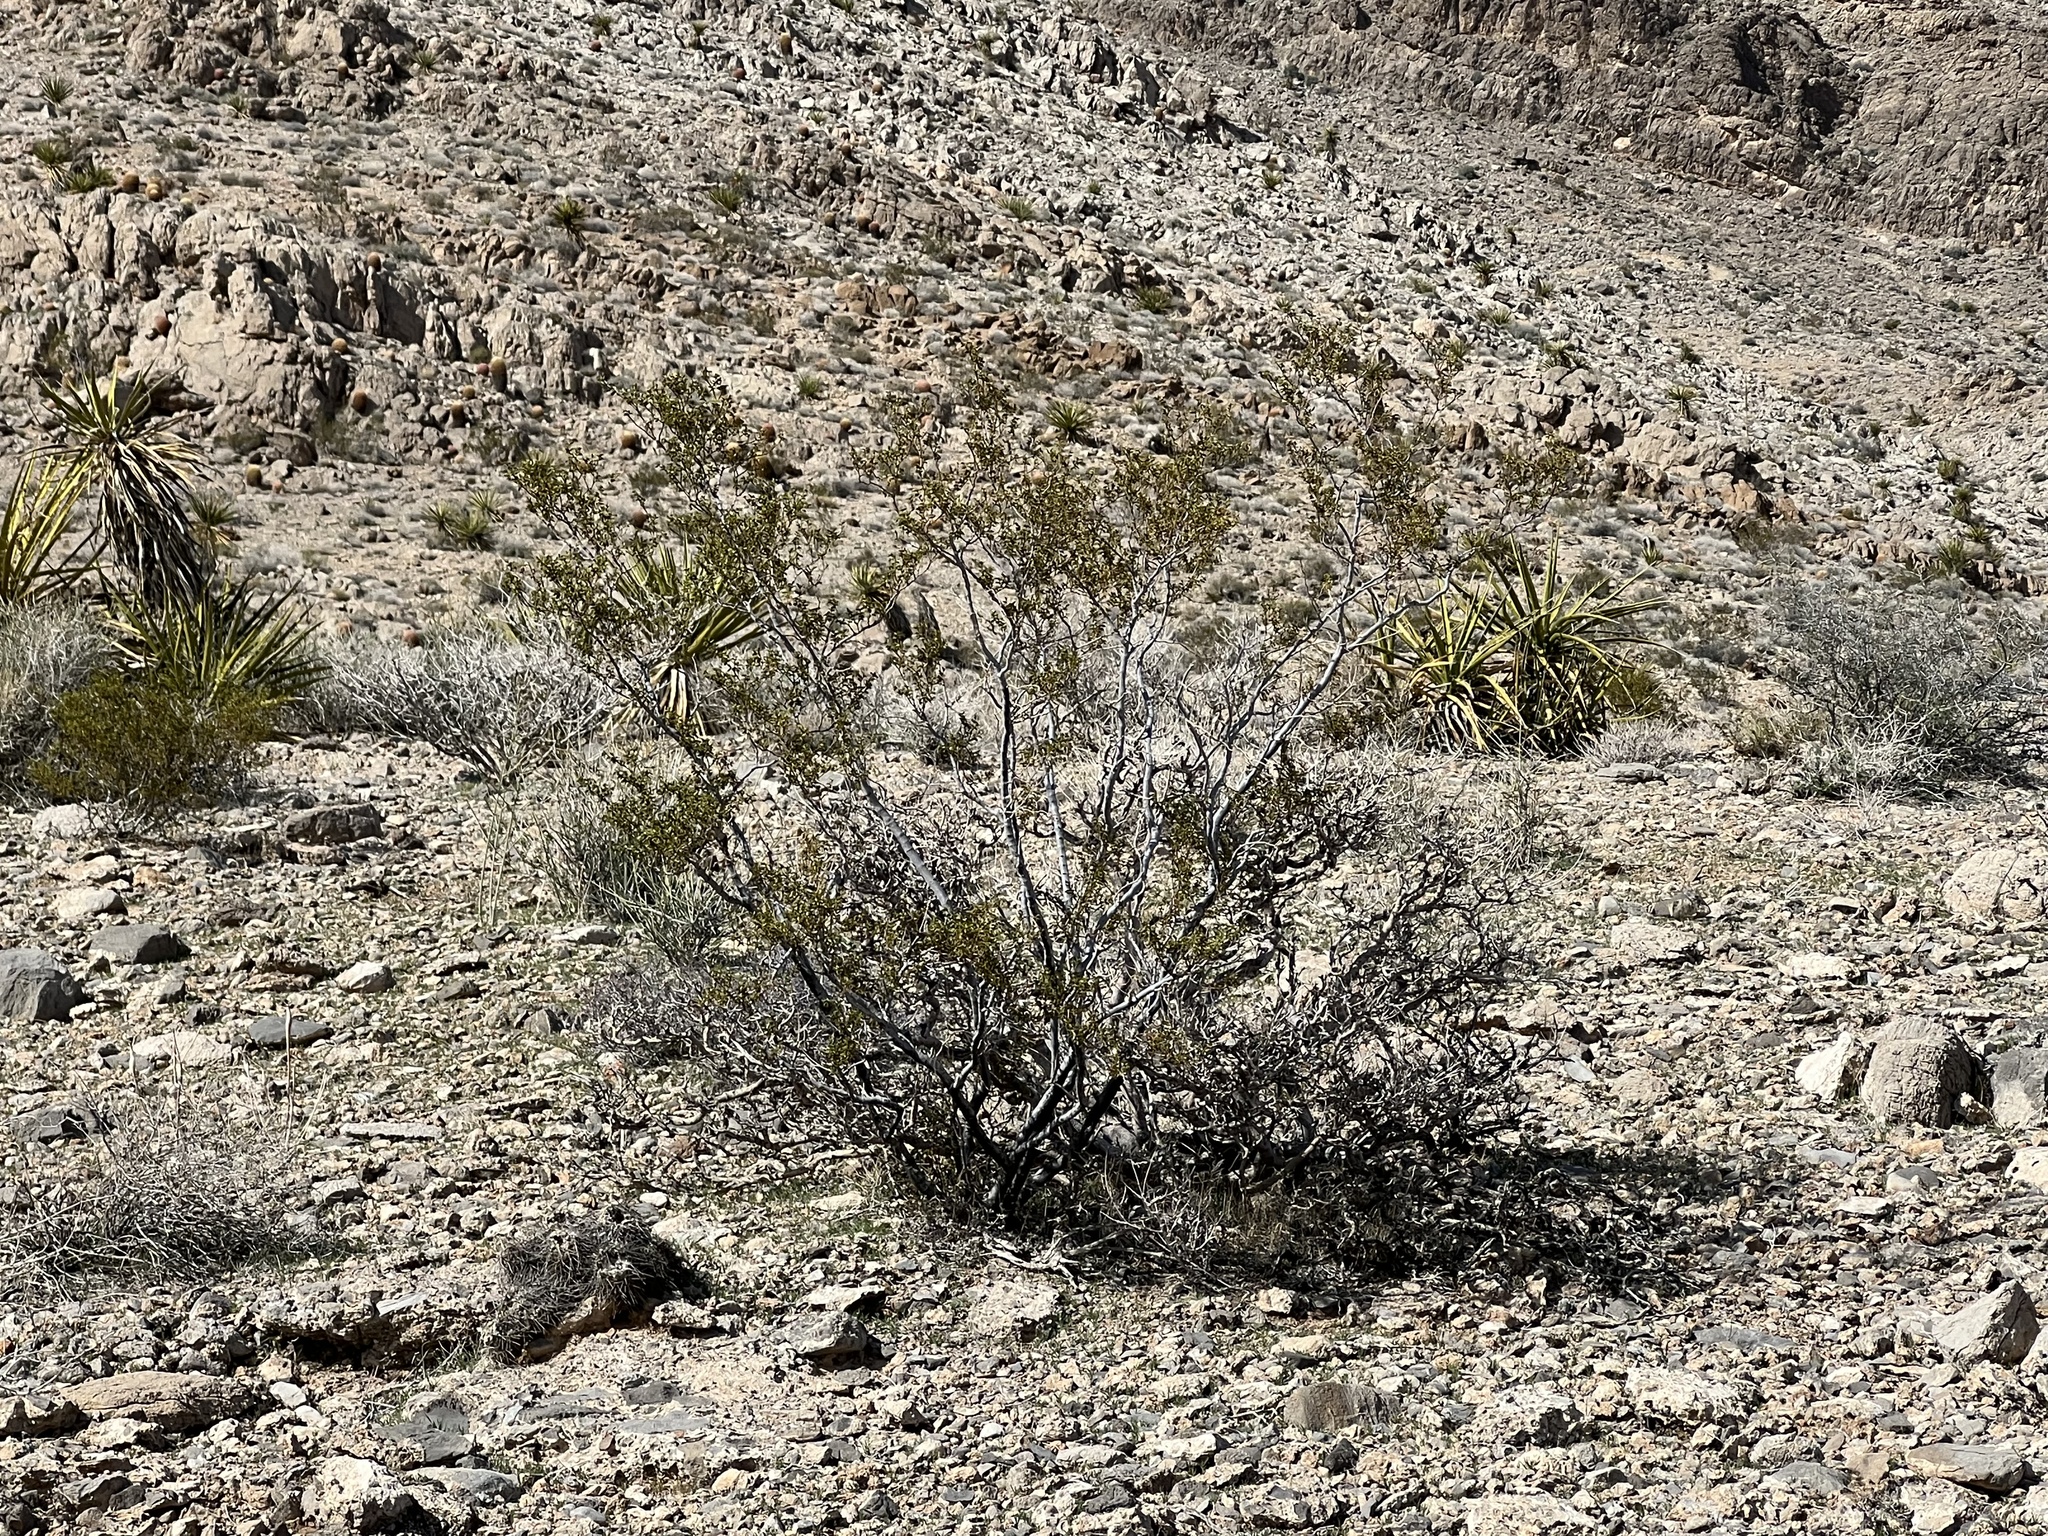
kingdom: Plantae
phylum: Tracheophyta
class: Magnoliopsida
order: Zygophyllales
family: Zygophyllaceae
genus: Larrea
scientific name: Larrea tridentata
